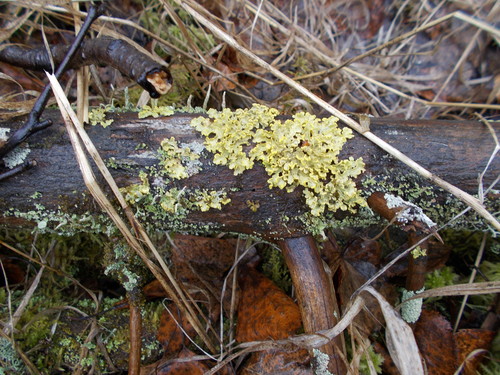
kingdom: Fungi
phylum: Ascomycota
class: Lecanoromycetes
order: Lecanorales
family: Parmeliaceae
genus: Vulpicida
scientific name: Vulpicida pinastri
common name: Powdered sunshine lichen
